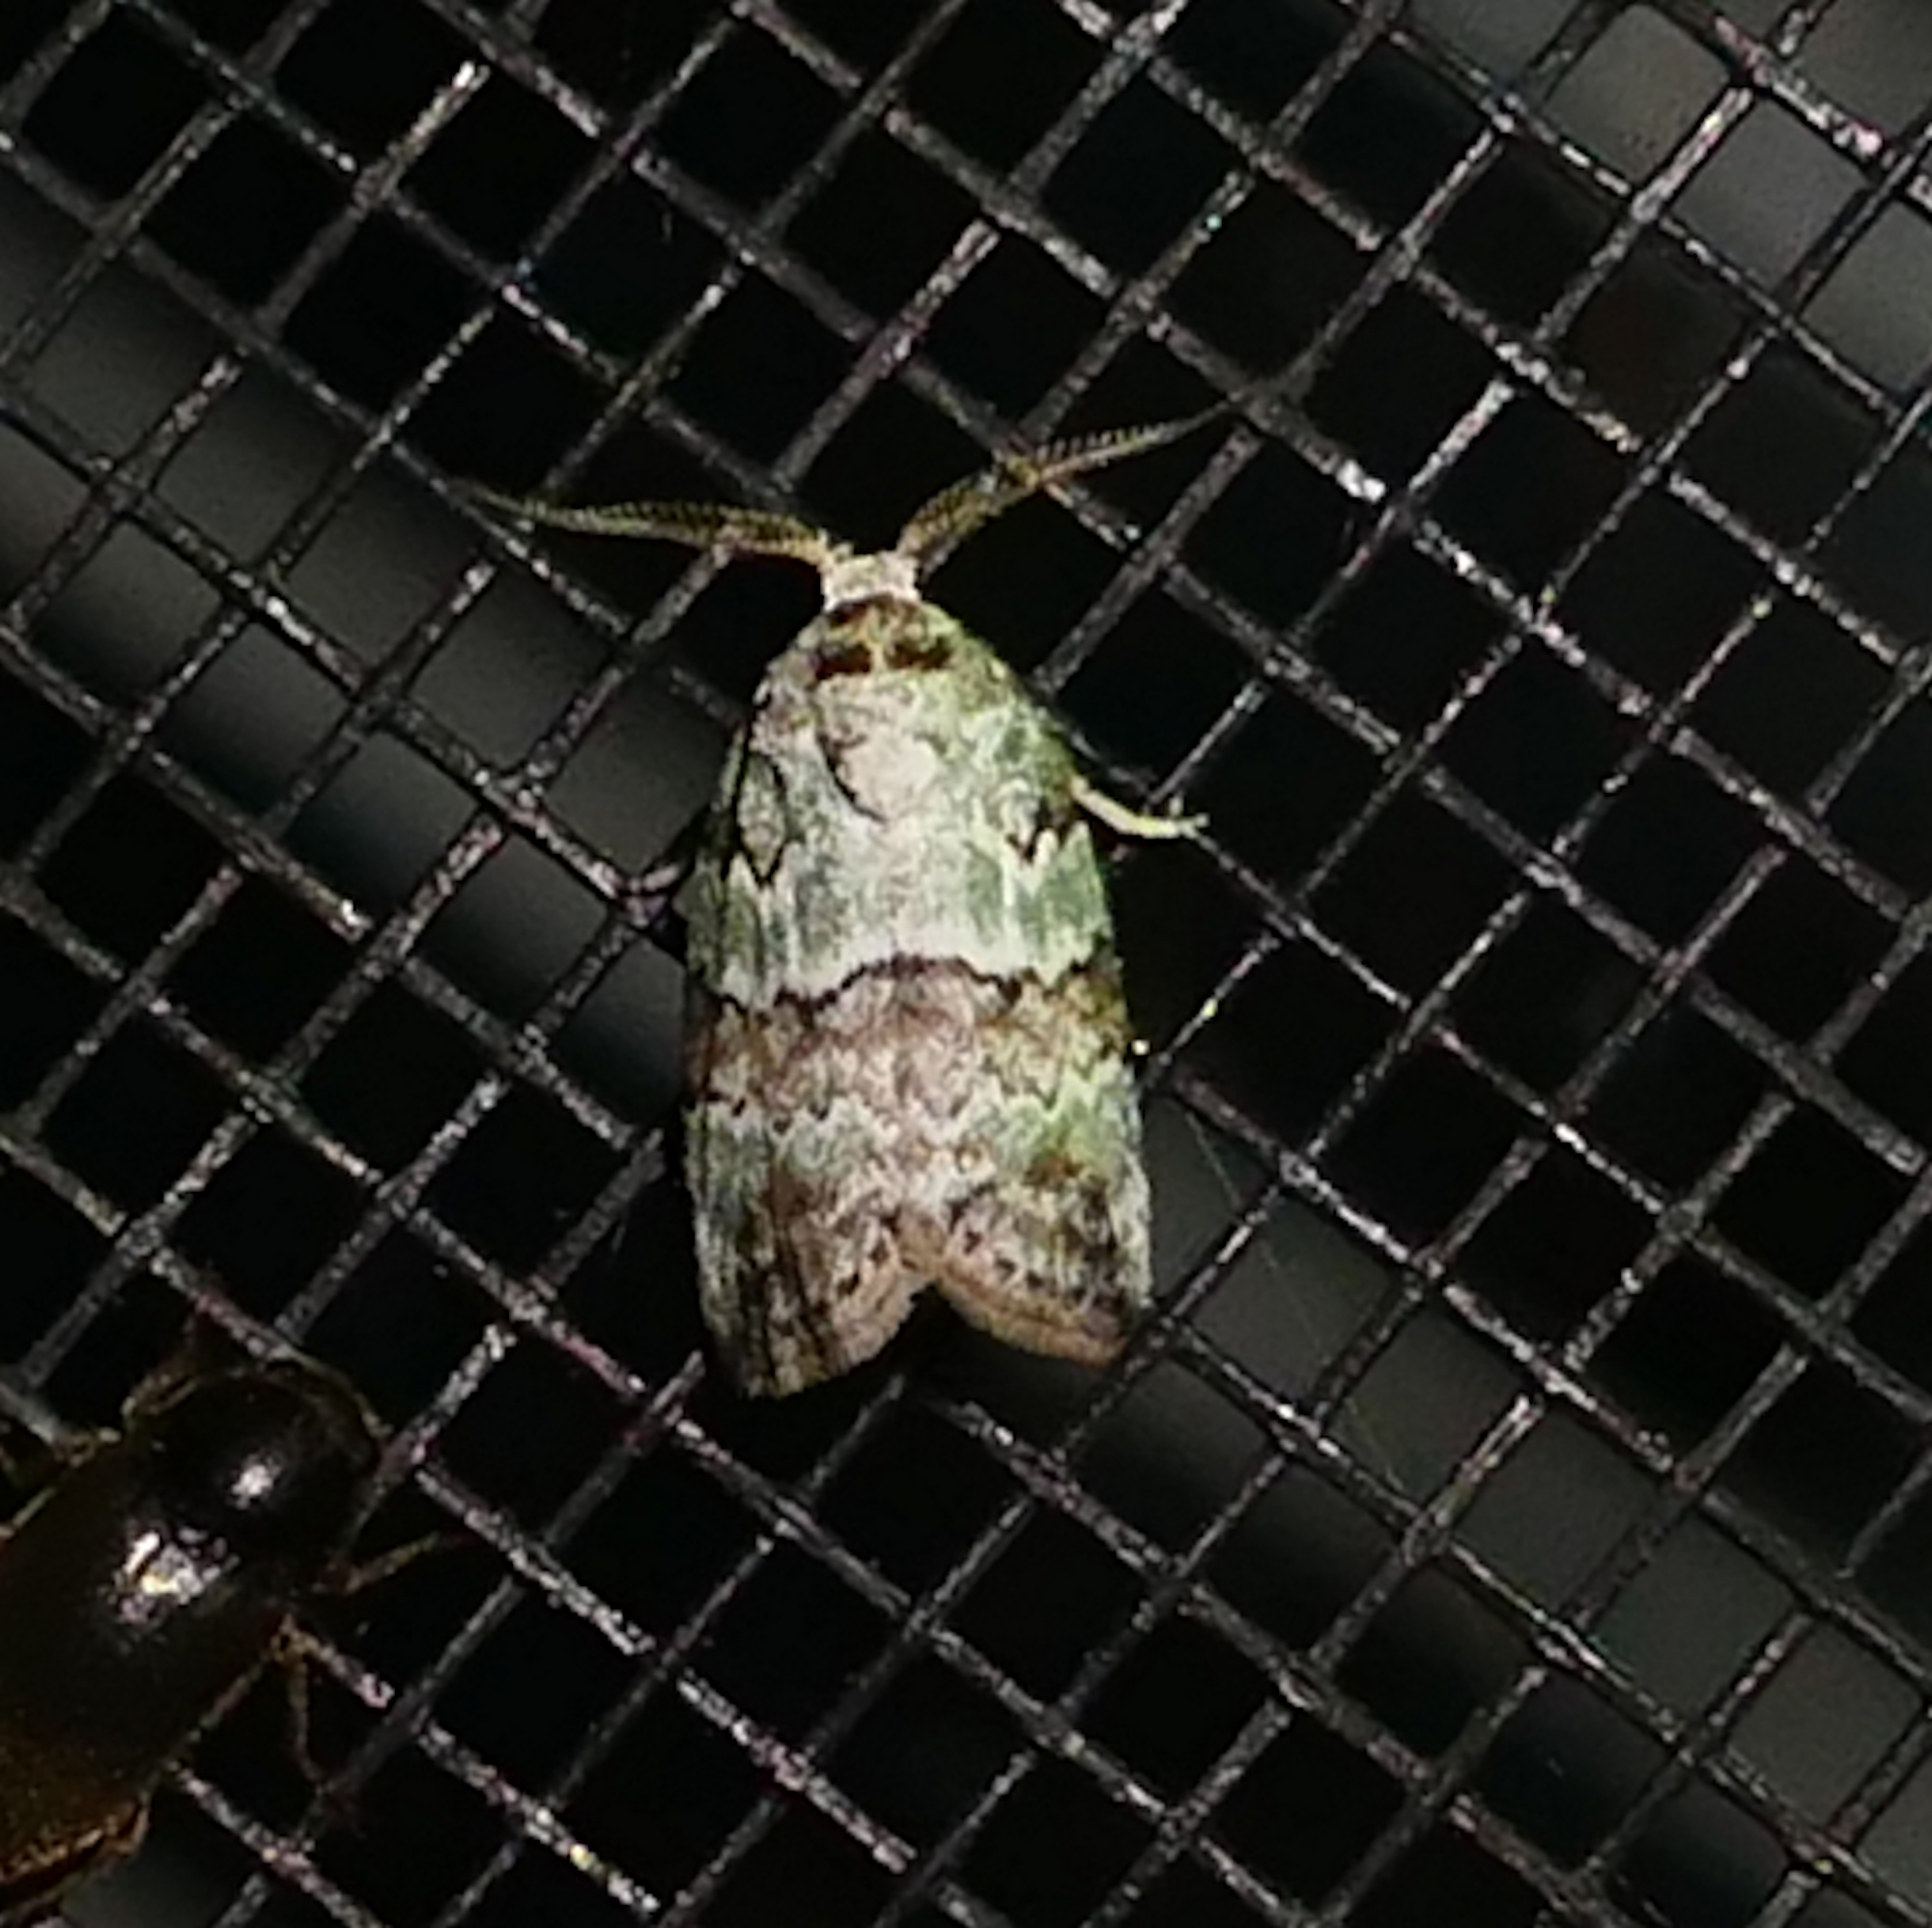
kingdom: Animalia
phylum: Arthropoda
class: Insecta
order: Lepidoptera
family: Nolidae
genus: Afrida
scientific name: Afrida ydatodes
